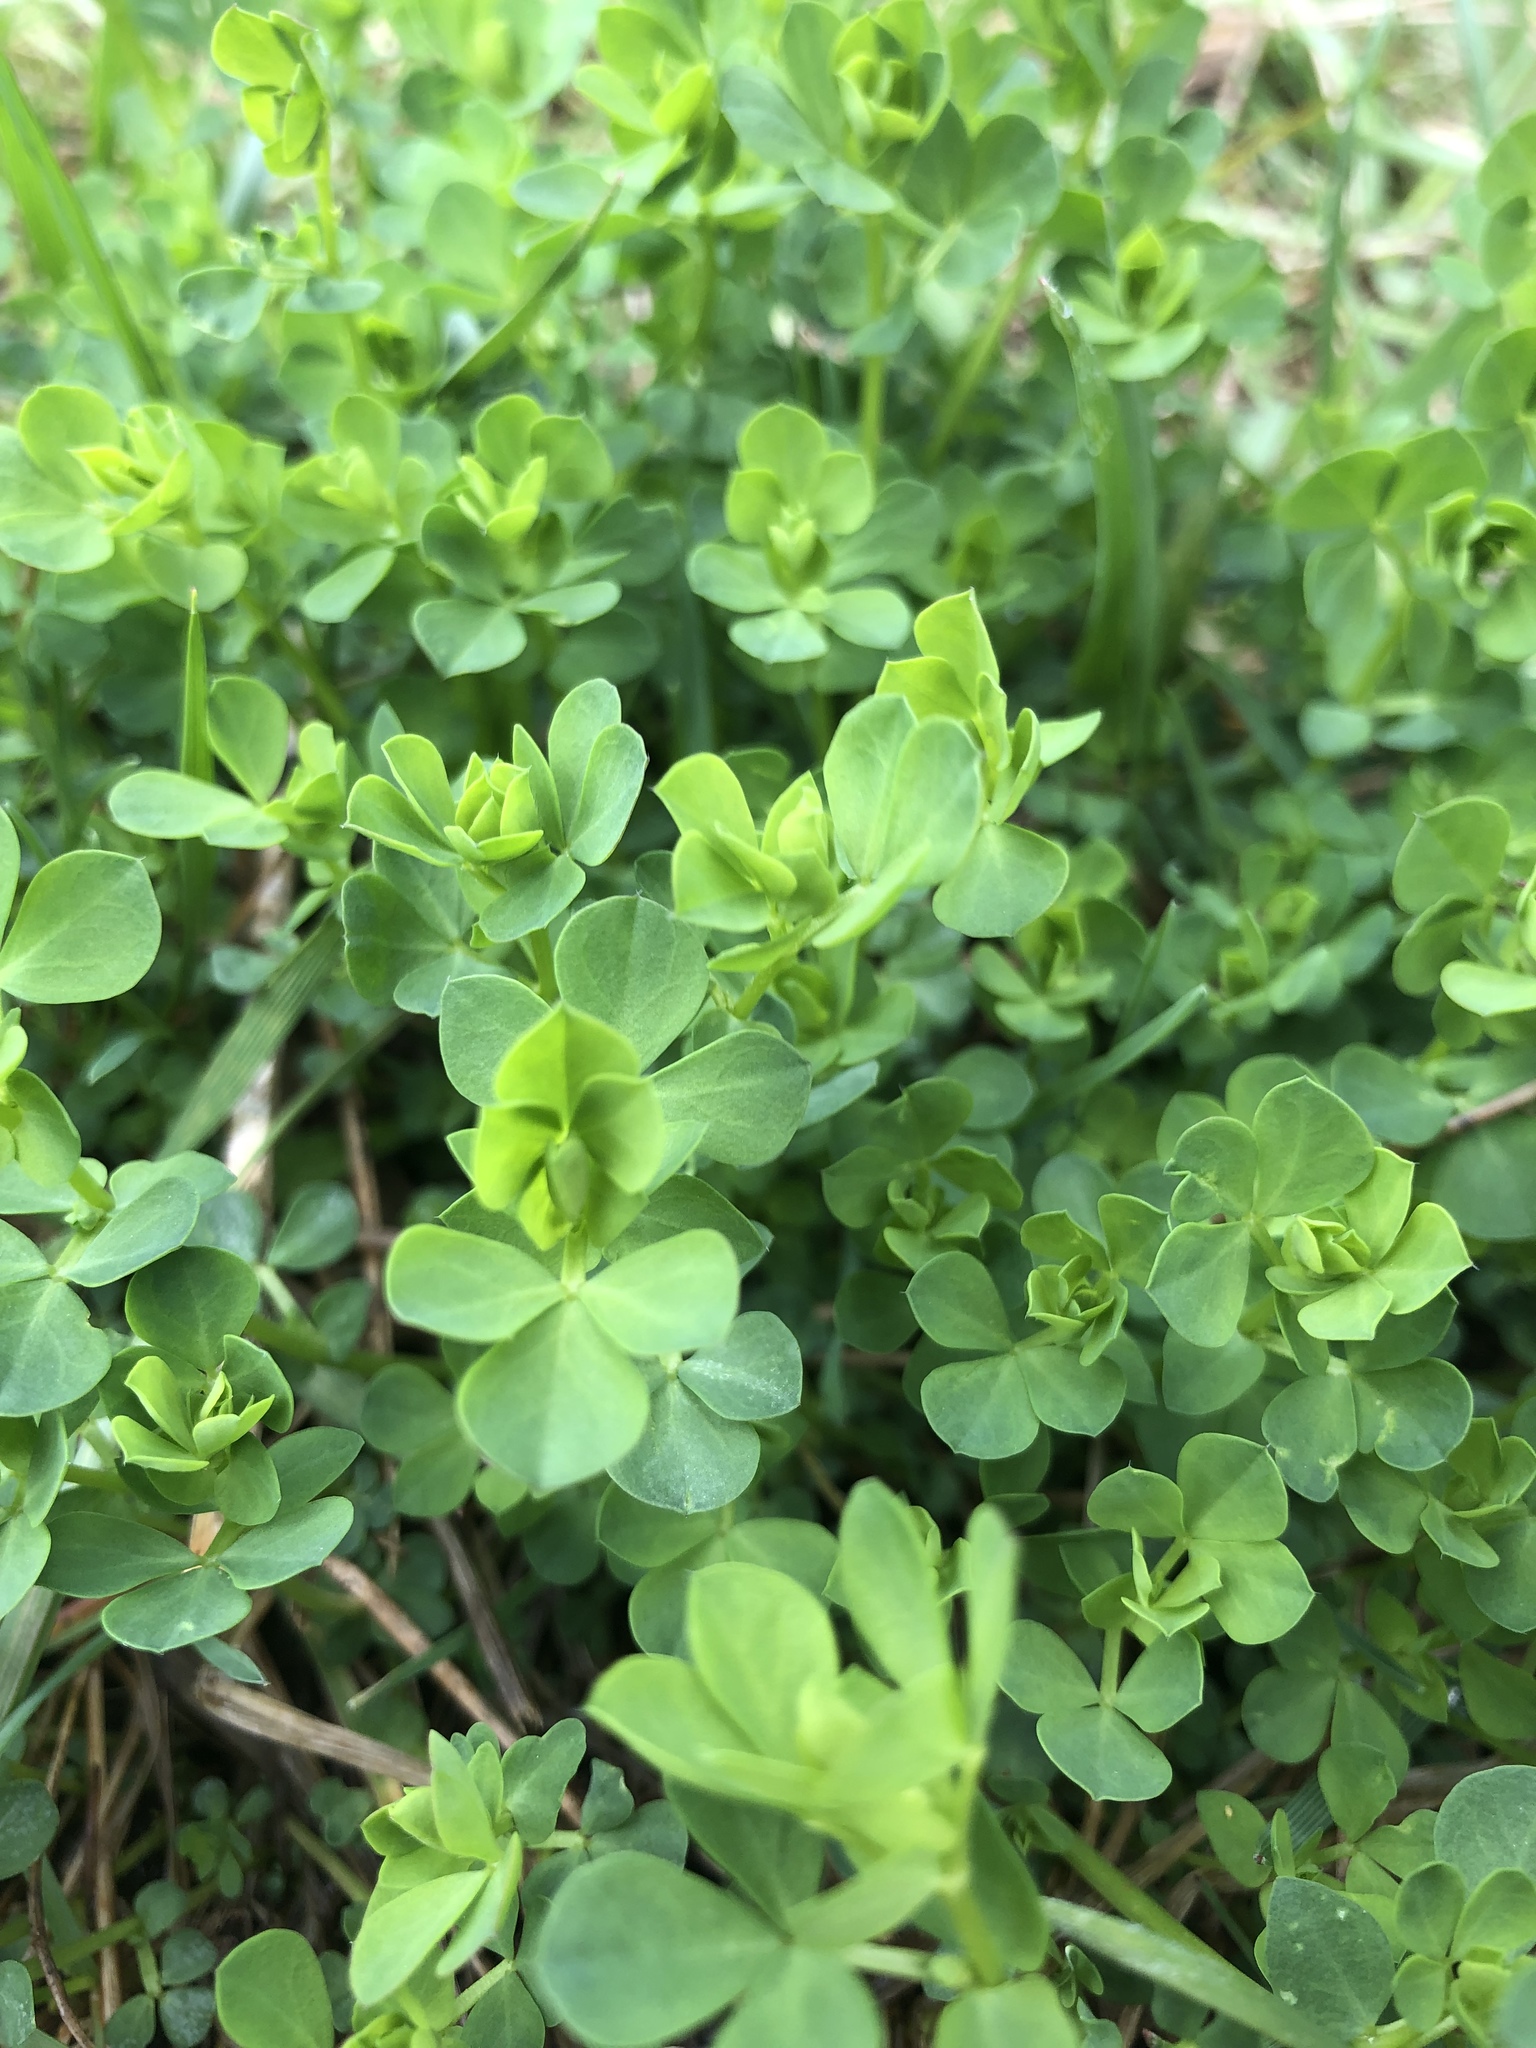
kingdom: Plantae
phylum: Tracheophyta
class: Magnoliopsida
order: Fabales
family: Fabaceae
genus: Lotus
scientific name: Lotus corniculatus
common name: Common bird's-foot-trefoil
